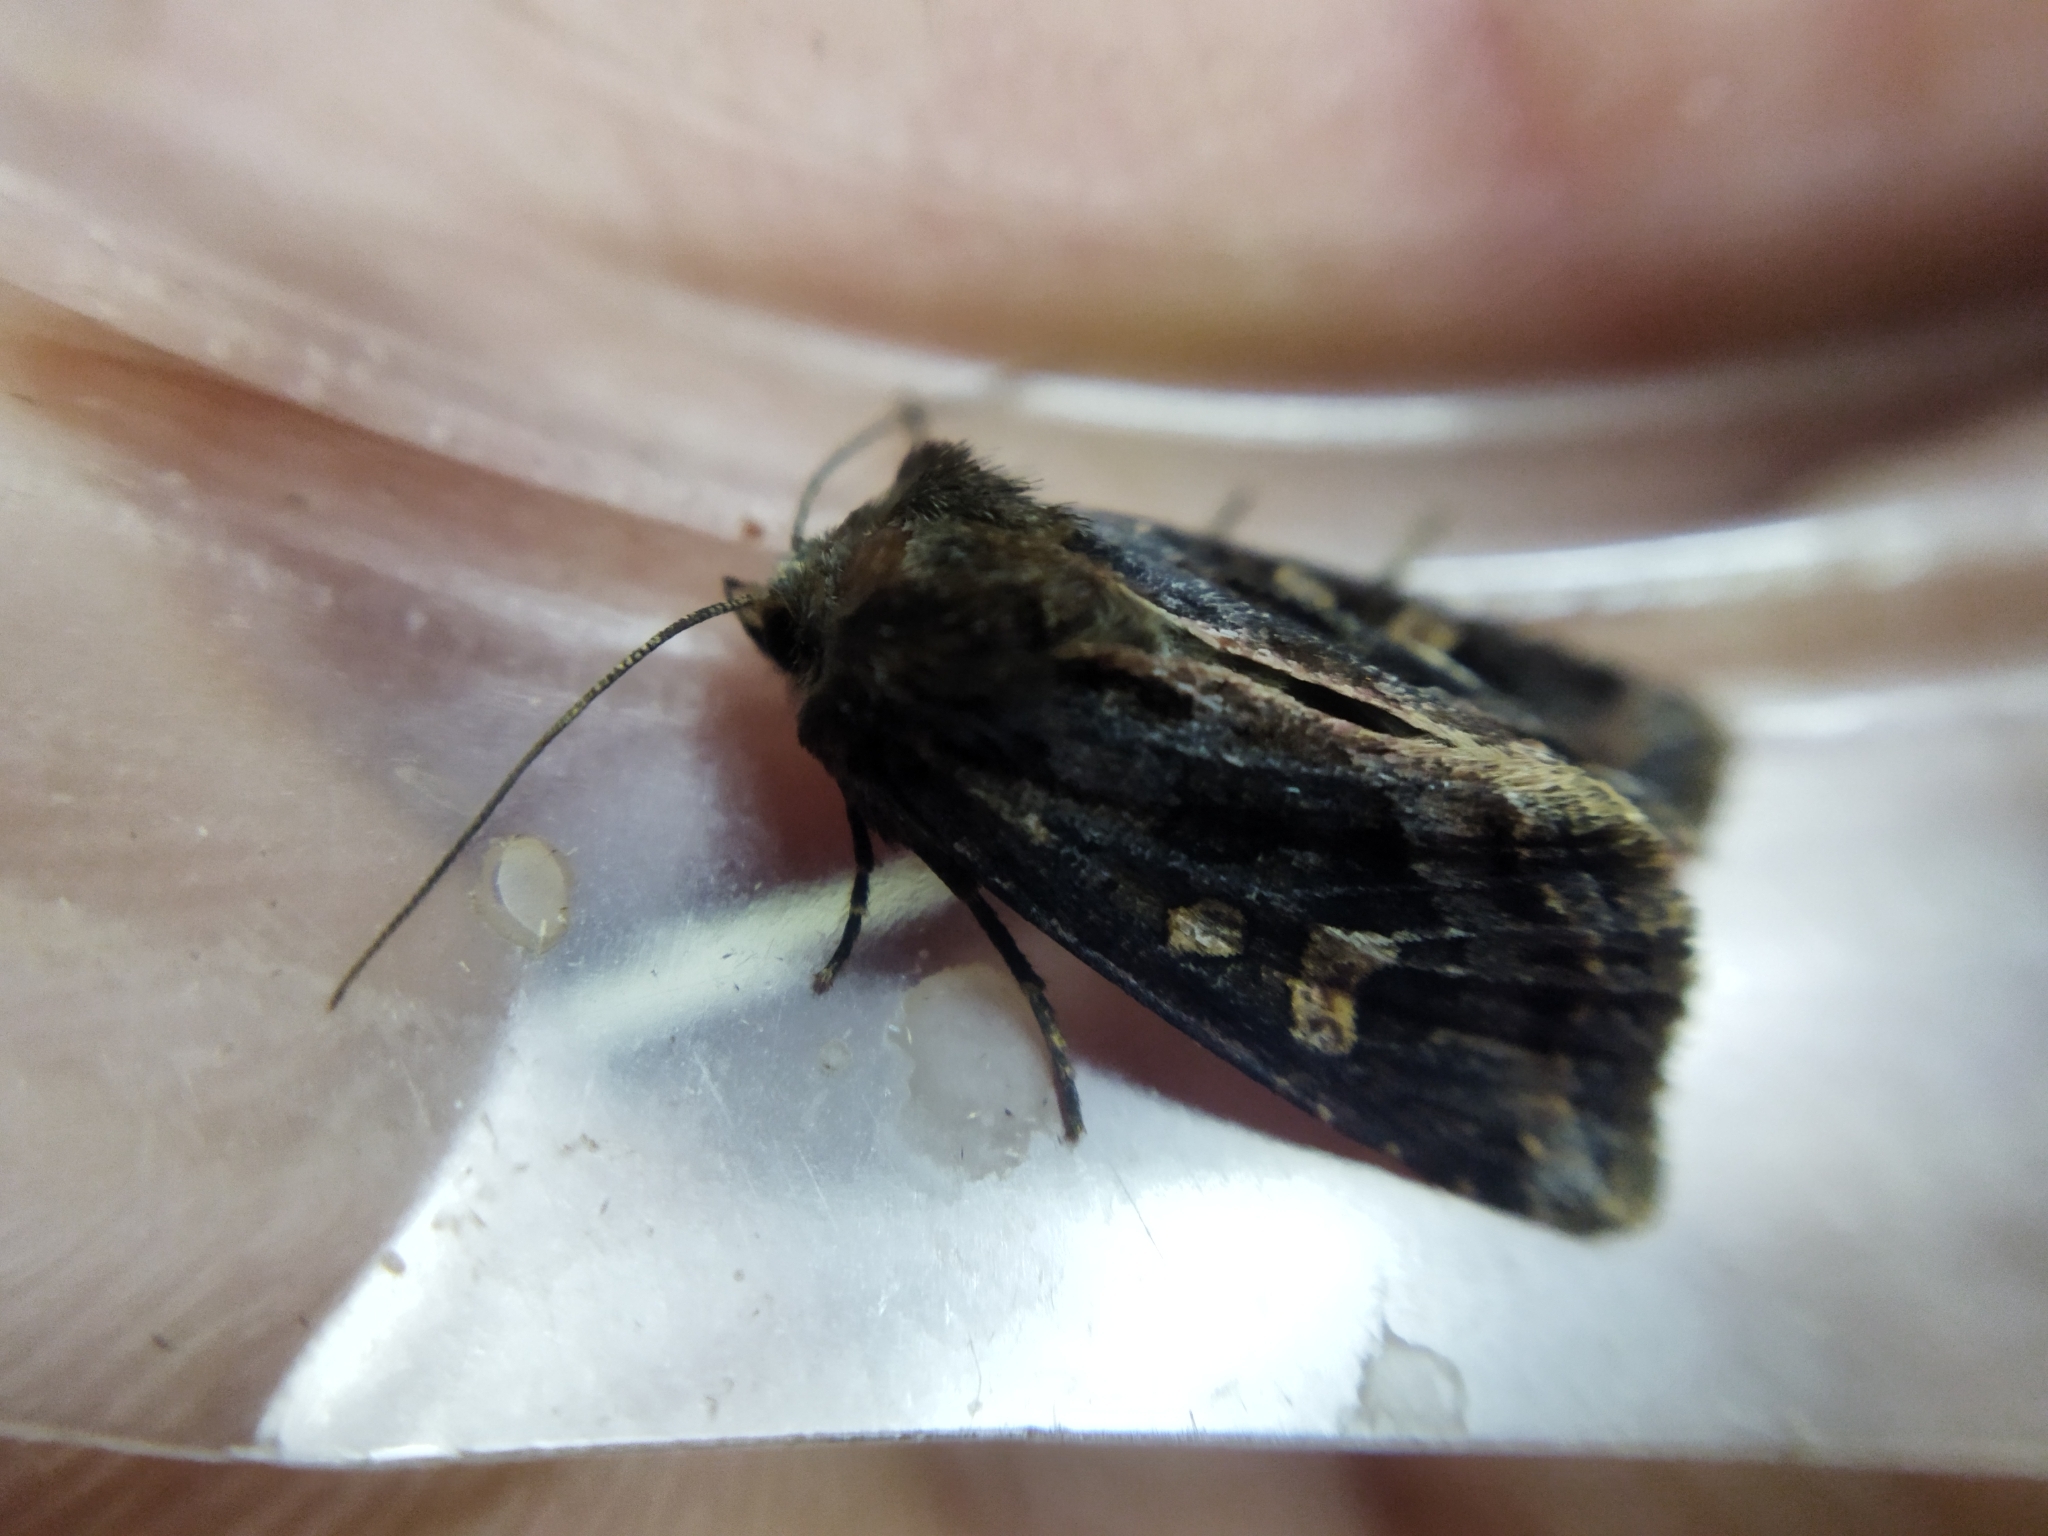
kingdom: Animalia
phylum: Arthropoda
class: Insecta
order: Lepidoptera
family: Noctuidae
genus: Celaena
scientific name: Celaena haworthii
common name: Haworth's minor
